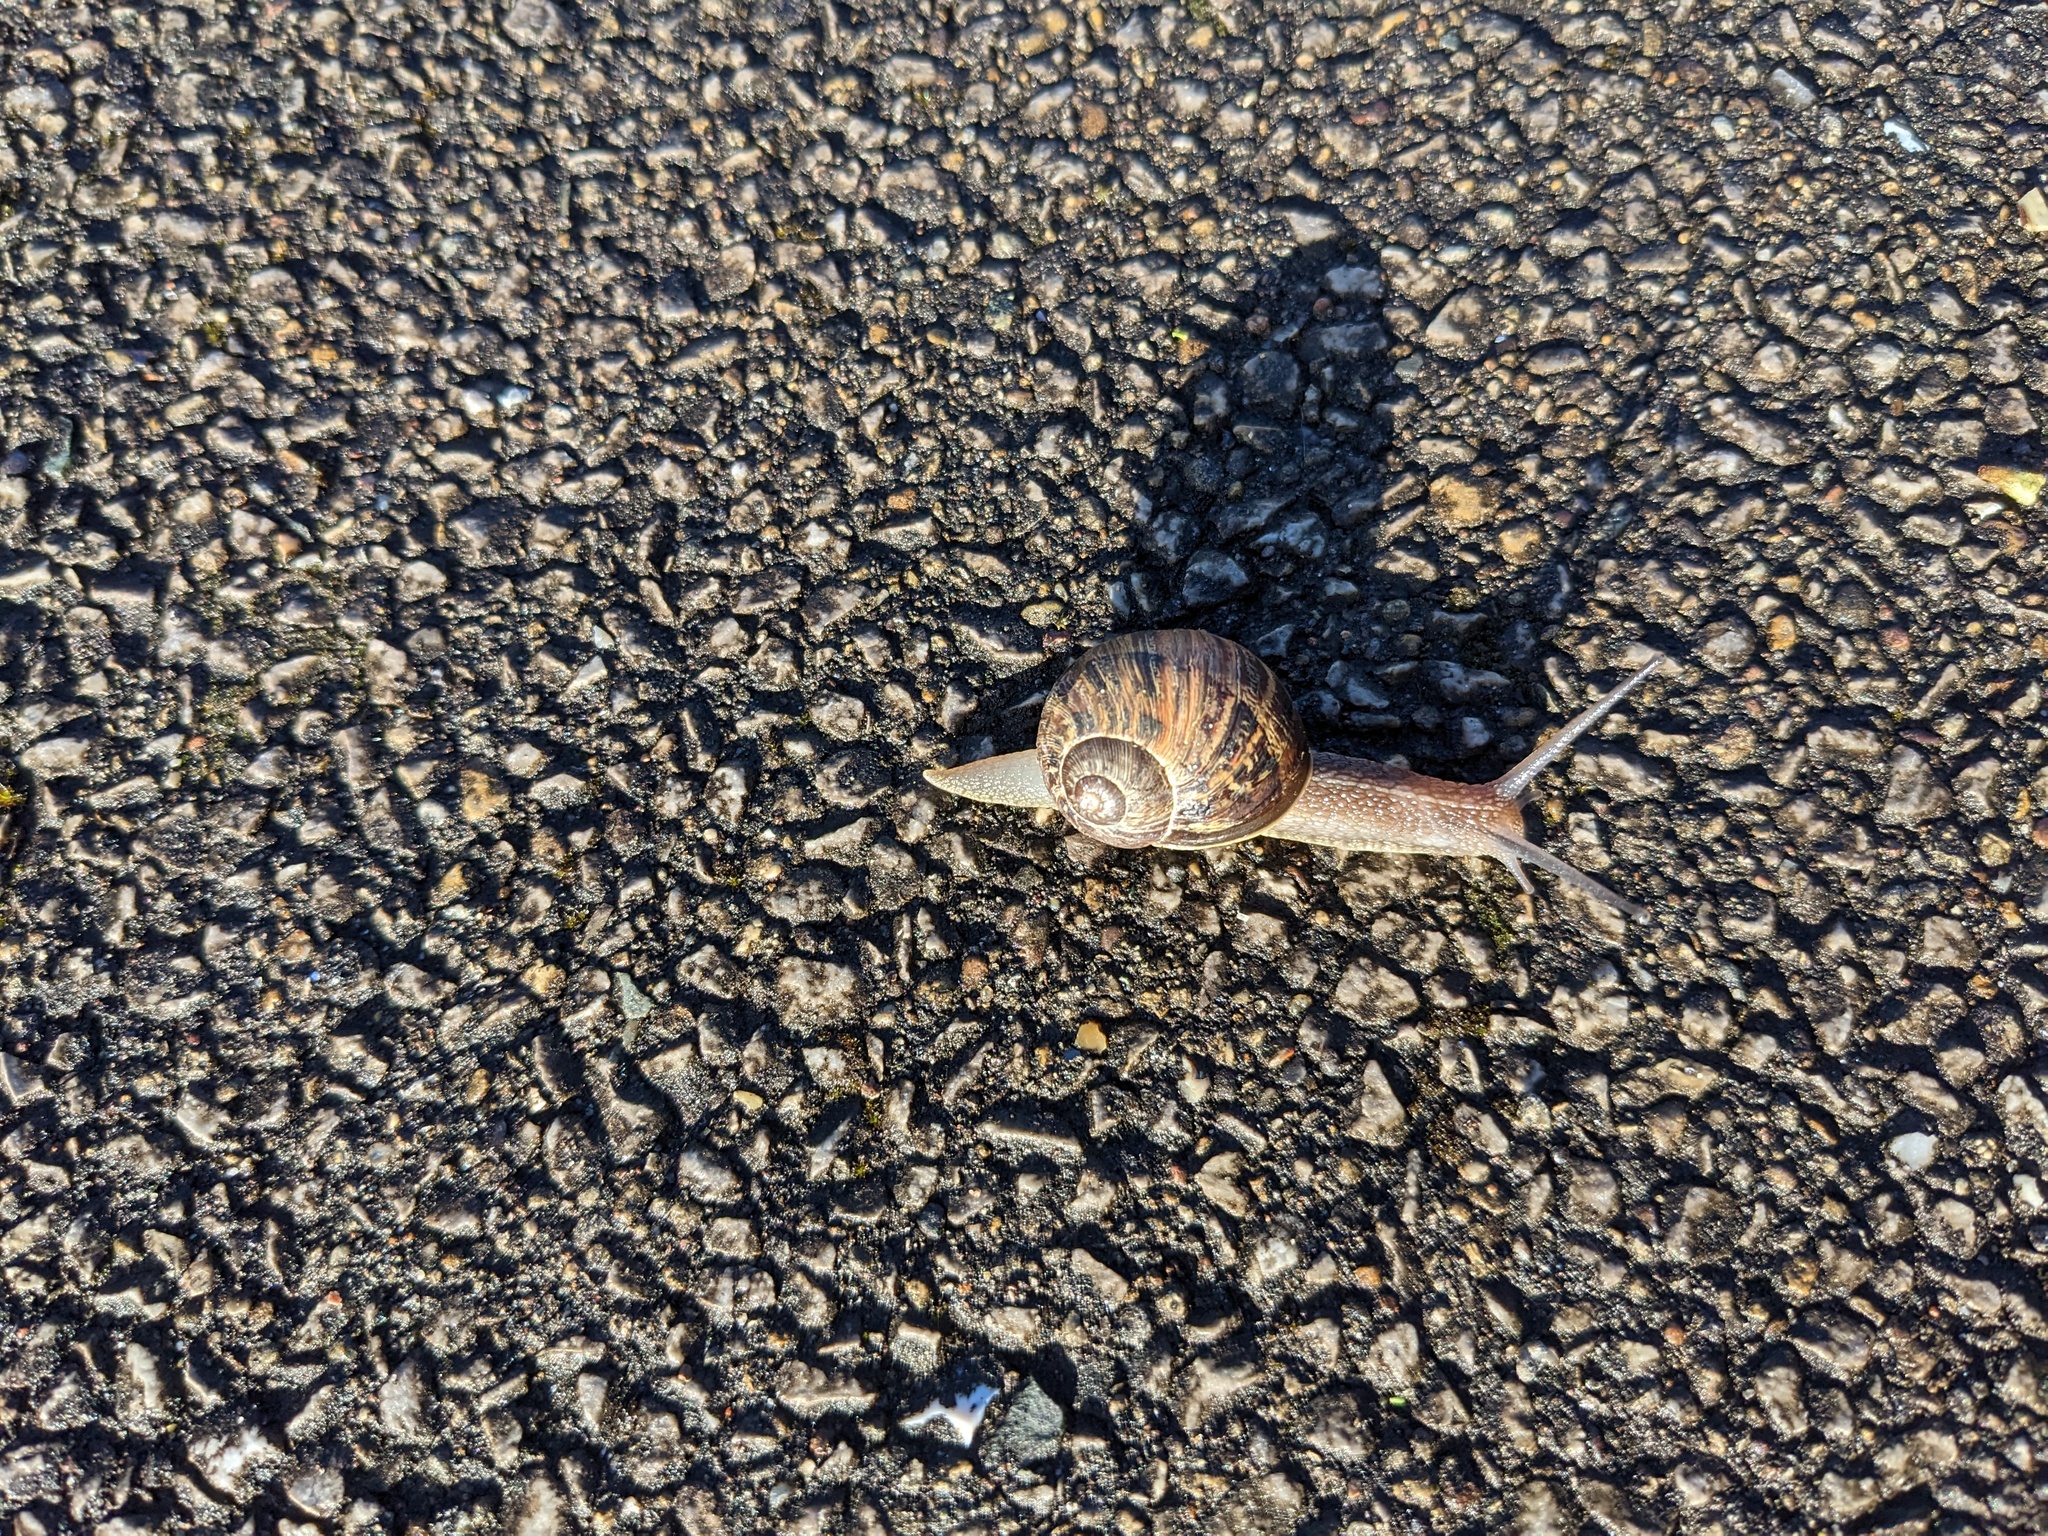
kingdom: Animalia
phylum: Mollusca
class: Gastropoda
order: Stylommatophora
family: Helicidae
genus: Cornu
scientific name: Cornu aspersum
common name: Brown garden snail
